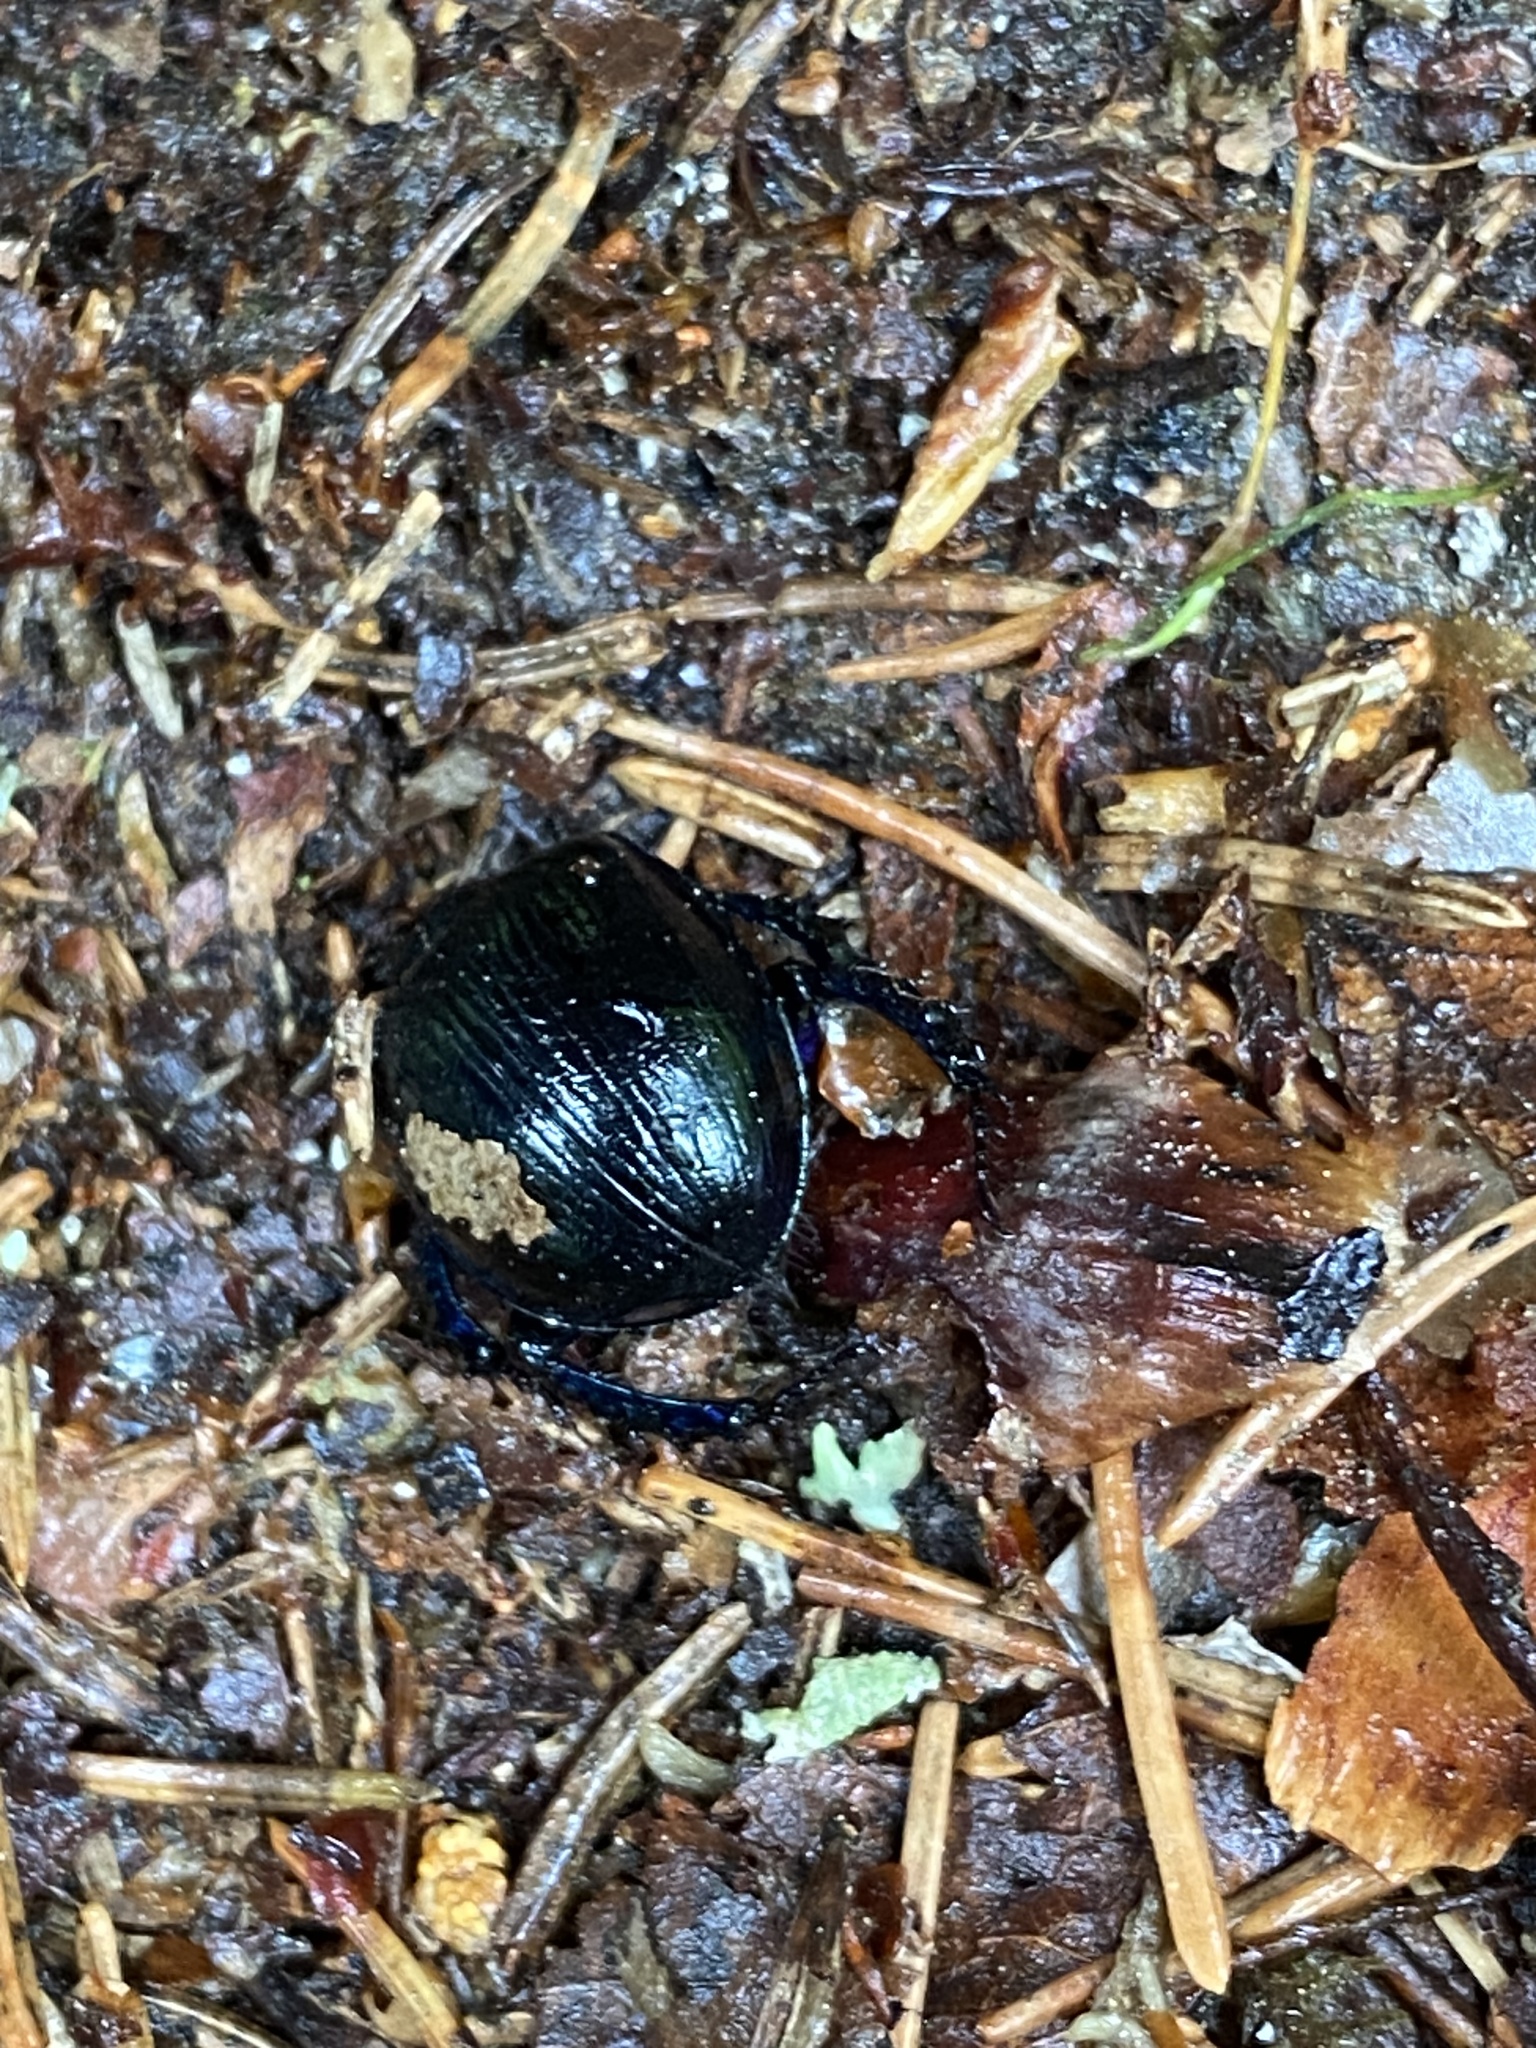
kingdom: Animalia
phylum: Arthropoda
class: Insecta
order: Coleoptera
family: Geotrupidae
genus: Anoplotrupes
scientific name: Anoplotrupes stercorosus
